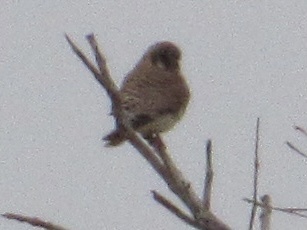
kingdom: Animalia
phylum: Chordata
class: Aves
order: Falconiformes
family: Falconidae
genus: Falco
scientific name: Falco sparverius
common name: American kestrel
